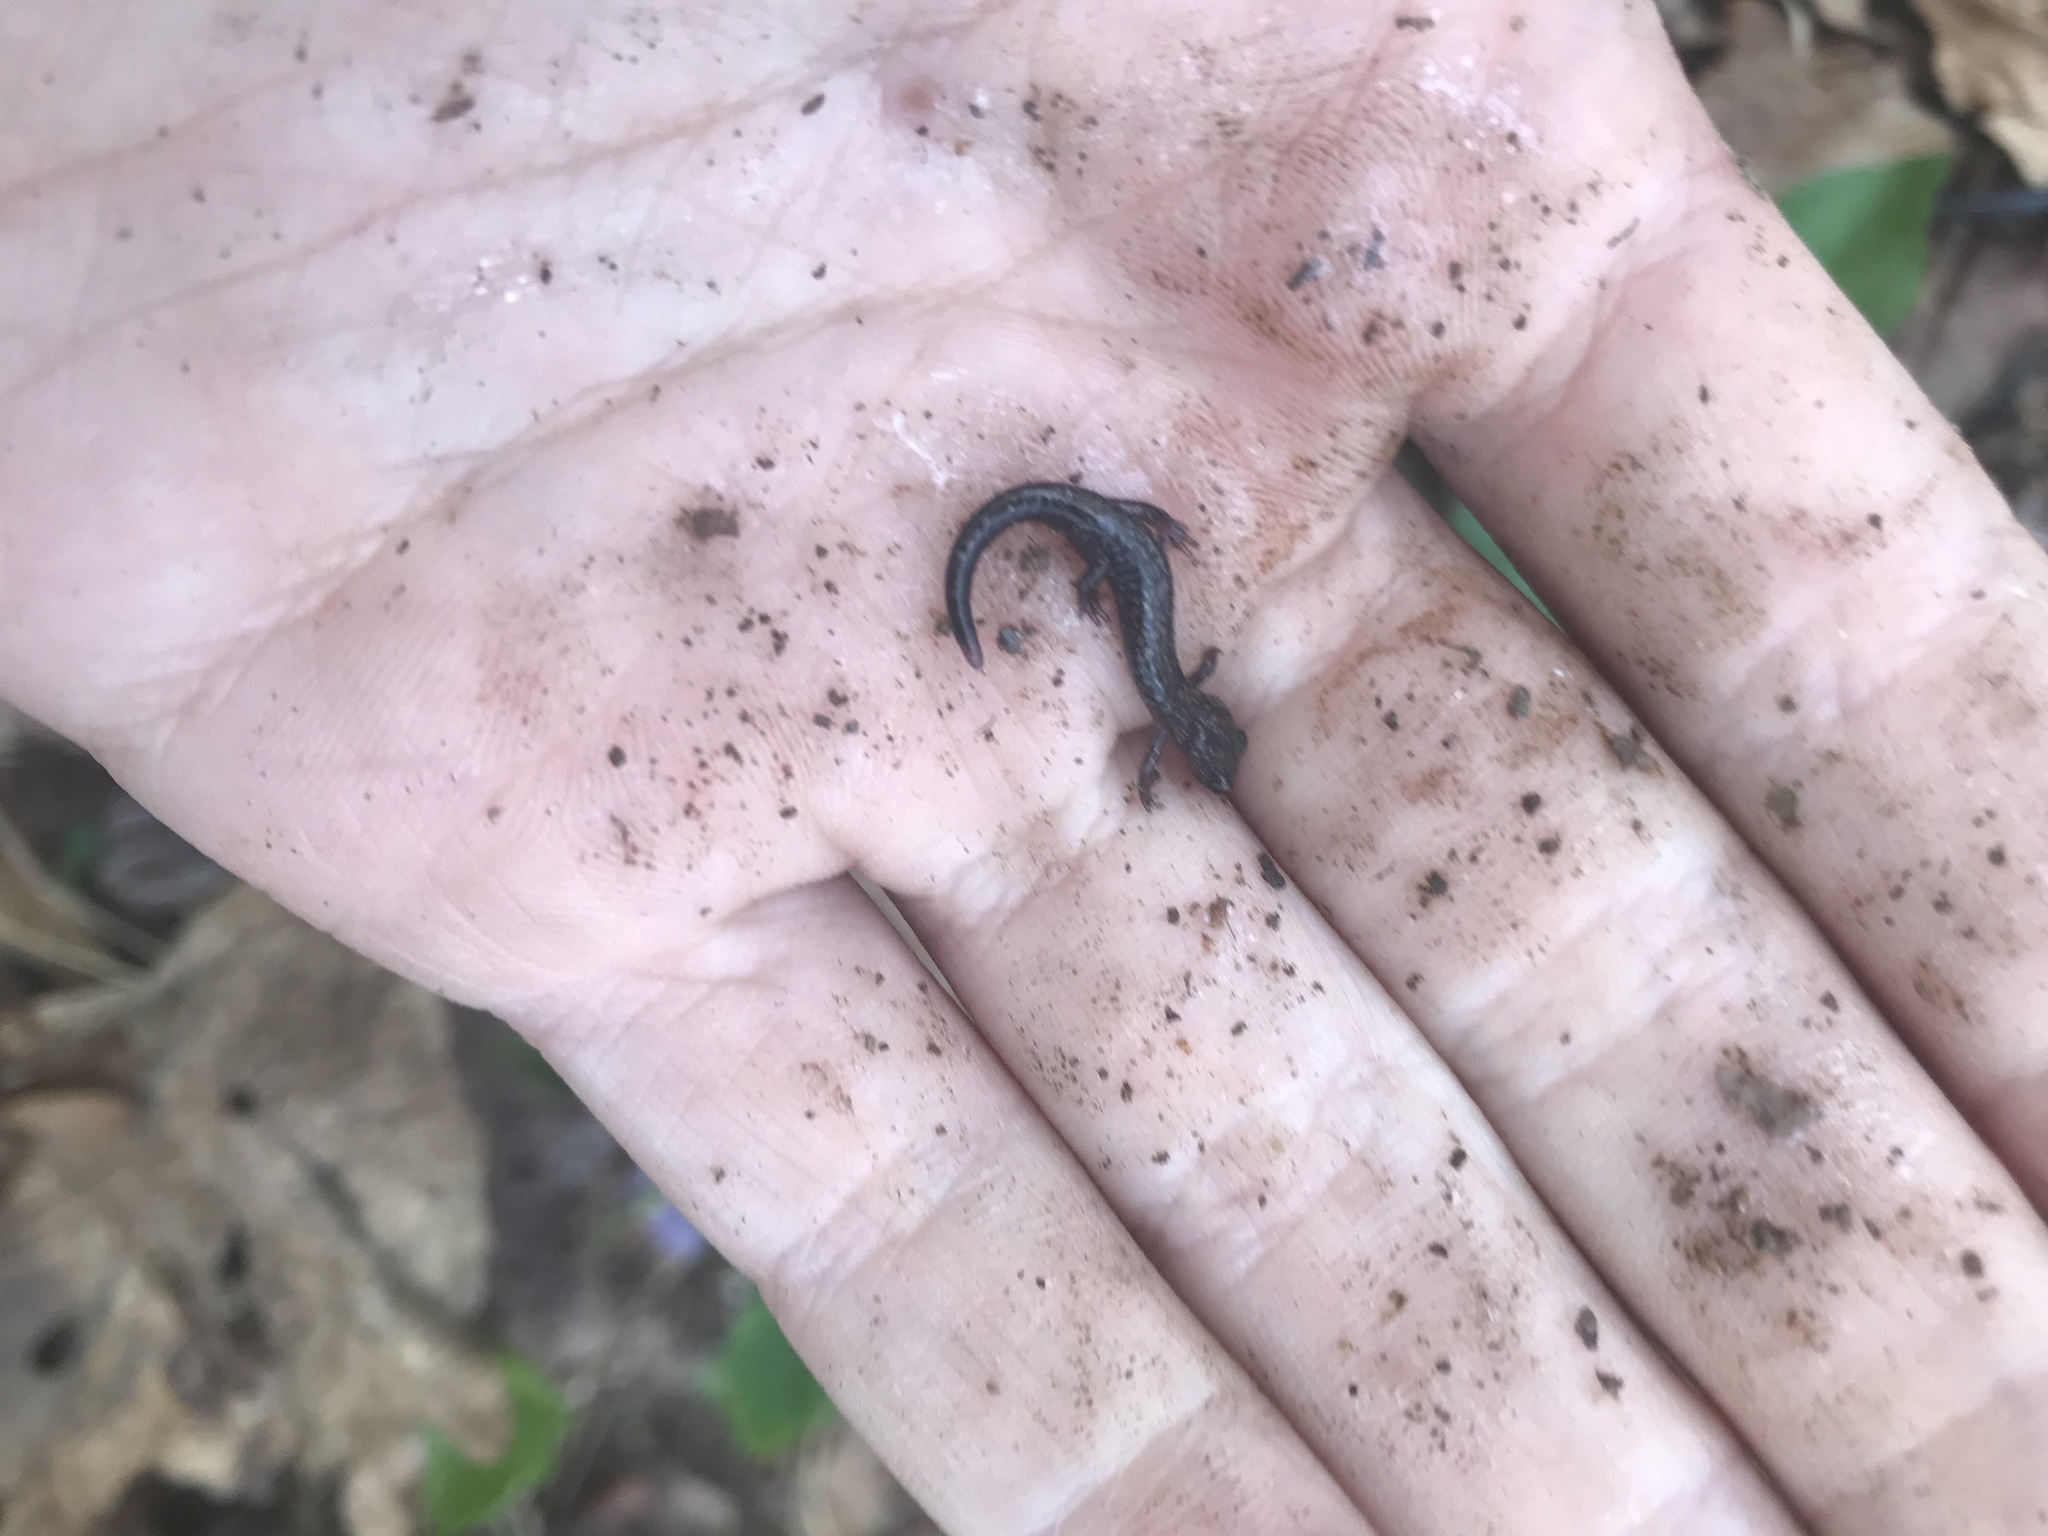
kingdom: Animalia
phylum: Chordata
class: Amphibia
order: Caudata
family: Plethodontidae
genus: Plethodon
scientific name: Plethodon hubrichti
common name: Peaks of otter salamander
